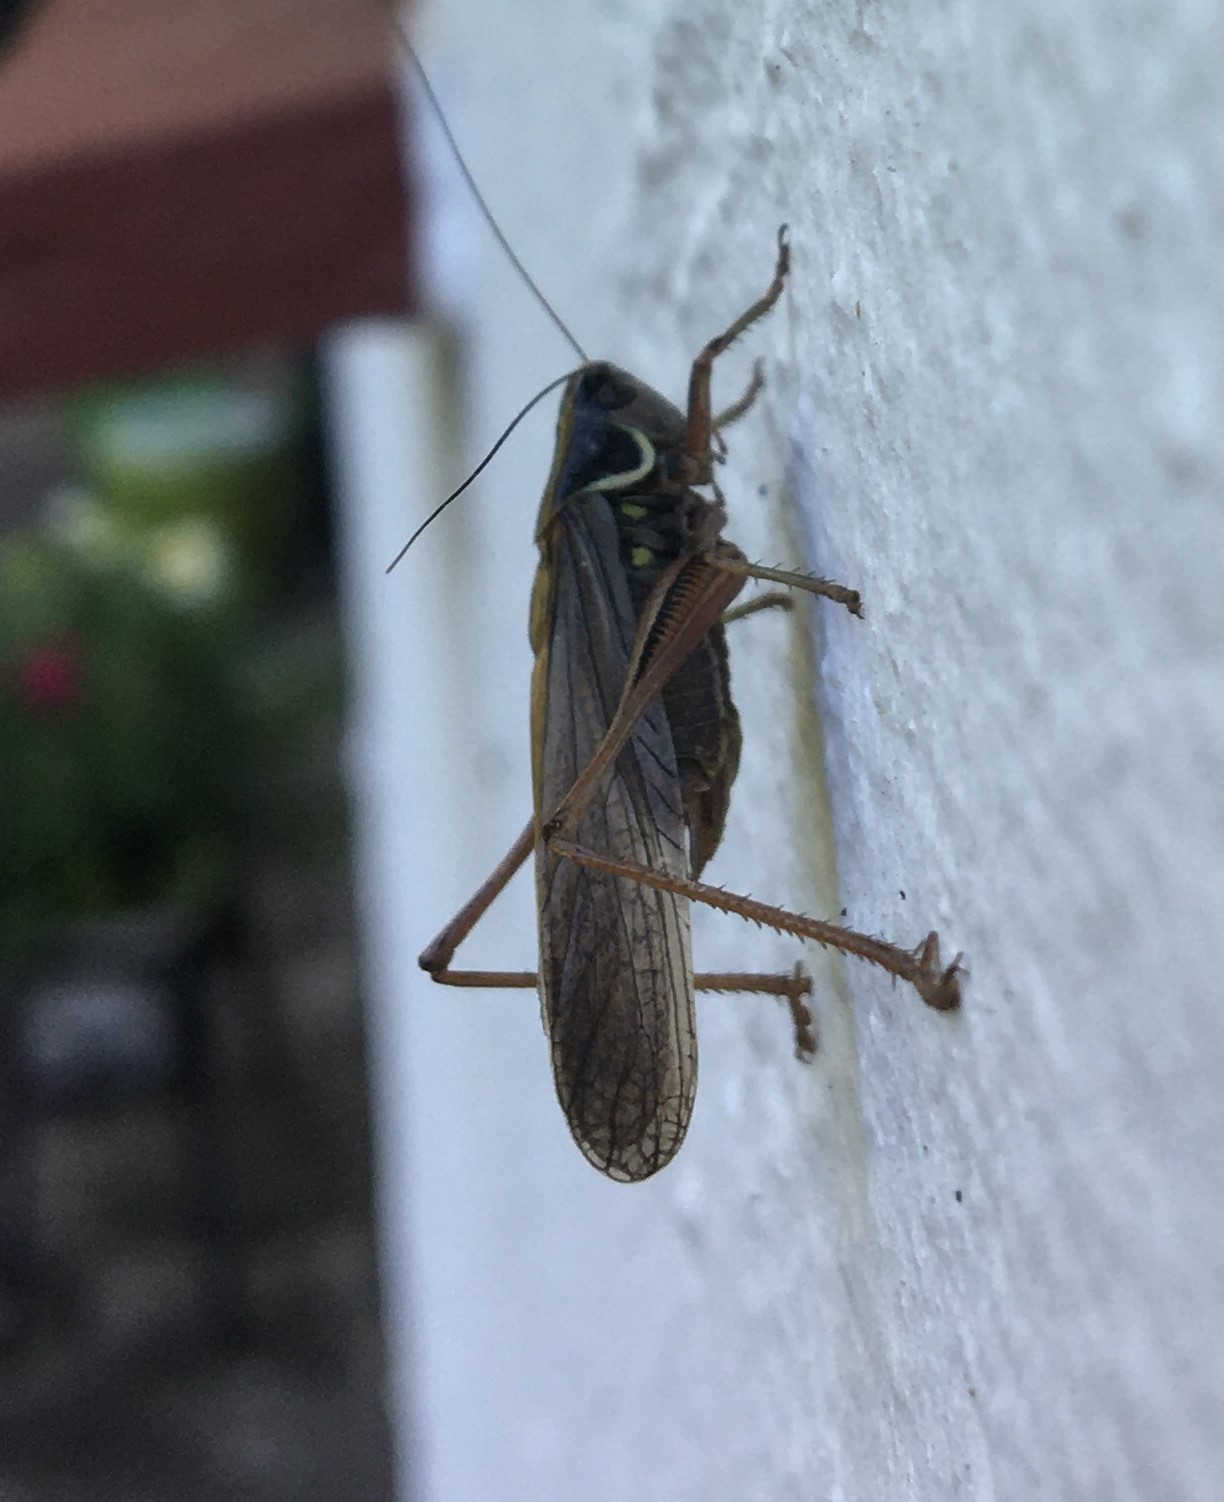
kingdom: Animalia
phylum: Arthropoda
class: Insecta
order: Orthoptera
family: Tettigoniidae
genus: Roeseliana
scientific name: Roeseliana roeselii
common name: Roesel's bush cricket
